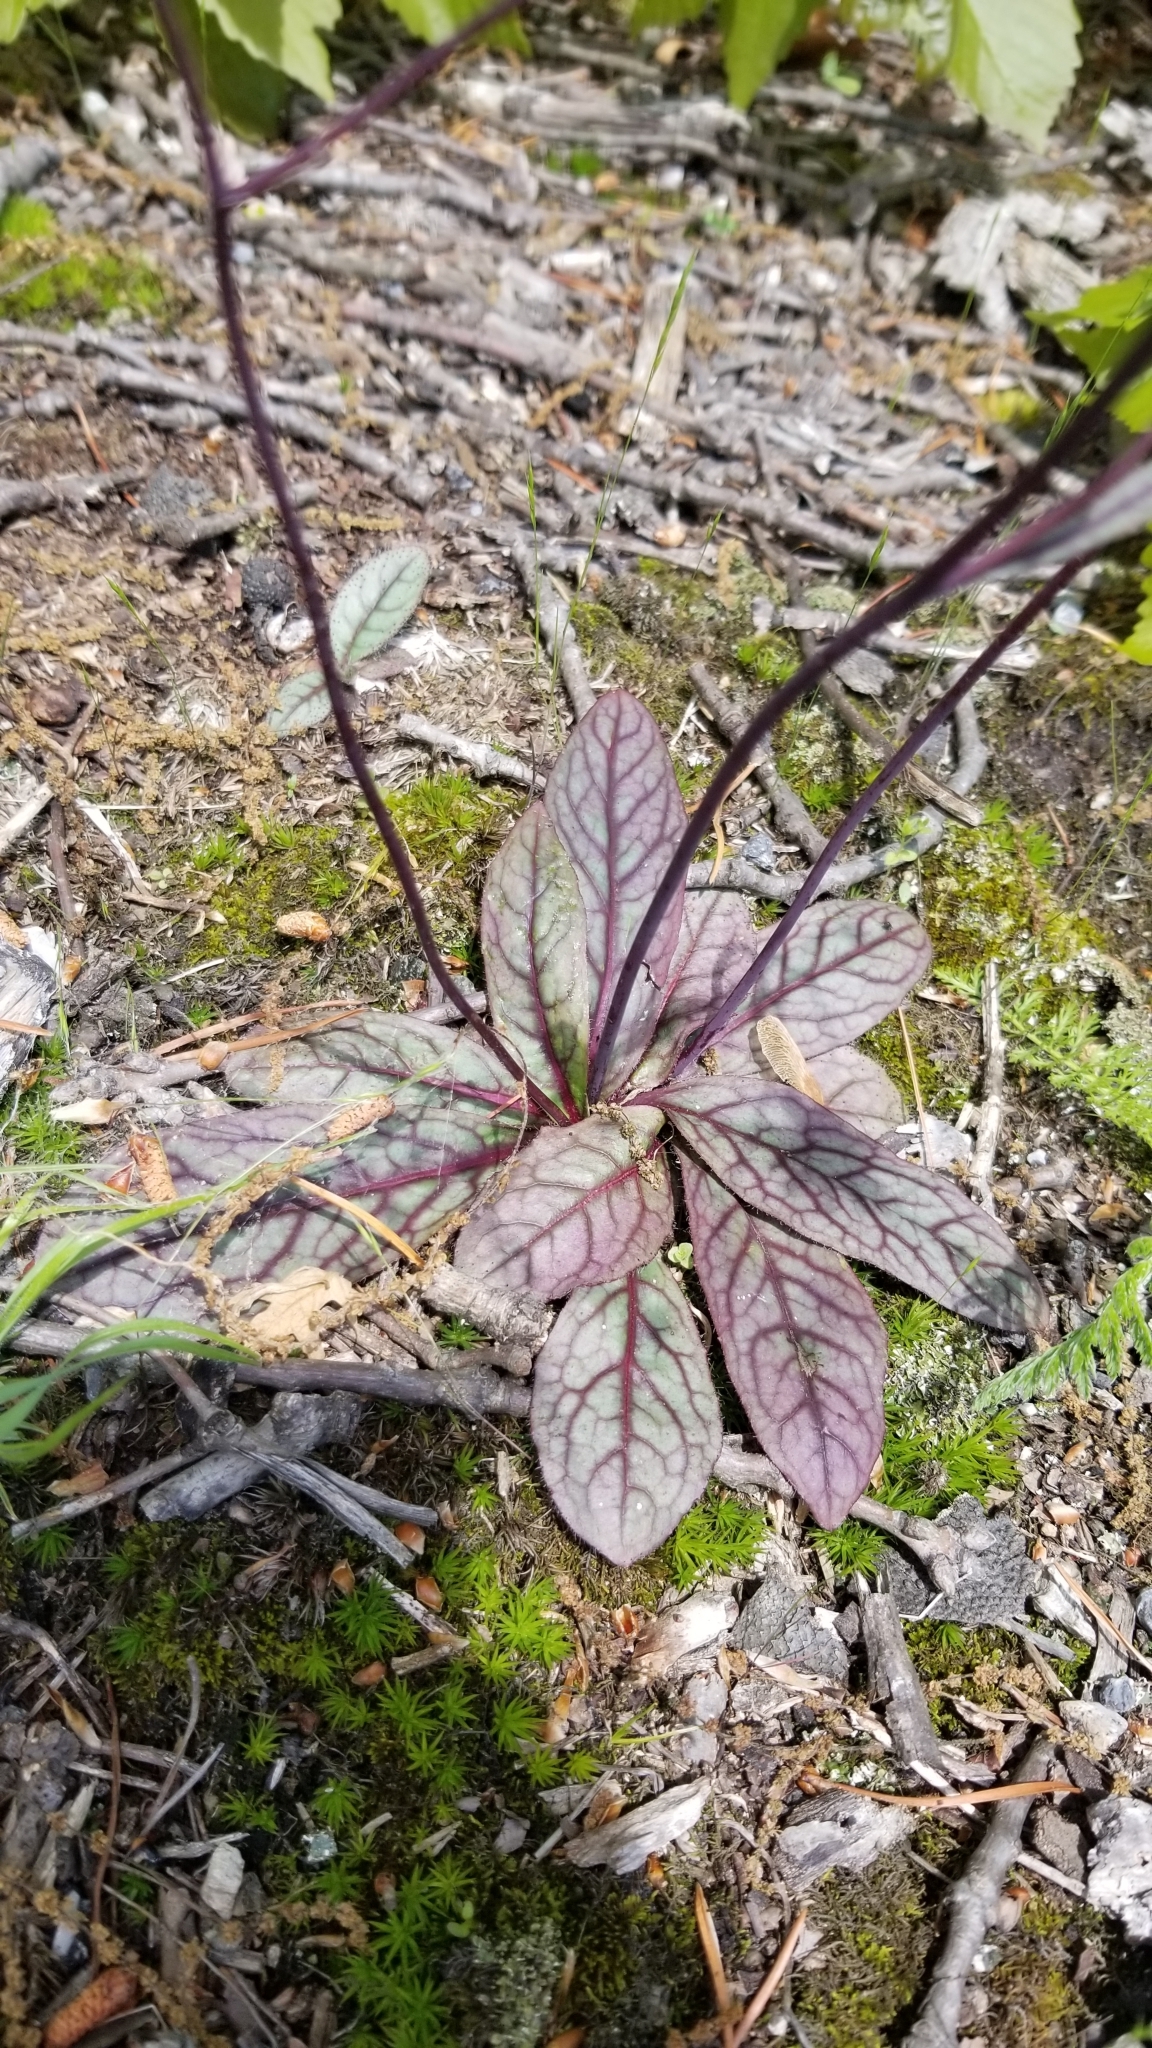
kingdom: Plantae
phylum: Tracheophyta
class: Magnoliopsida
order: Asterales
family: Asteraceae
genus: Hieracium
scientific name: Hieracium venosum
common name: Rattlesnake hawkweed
